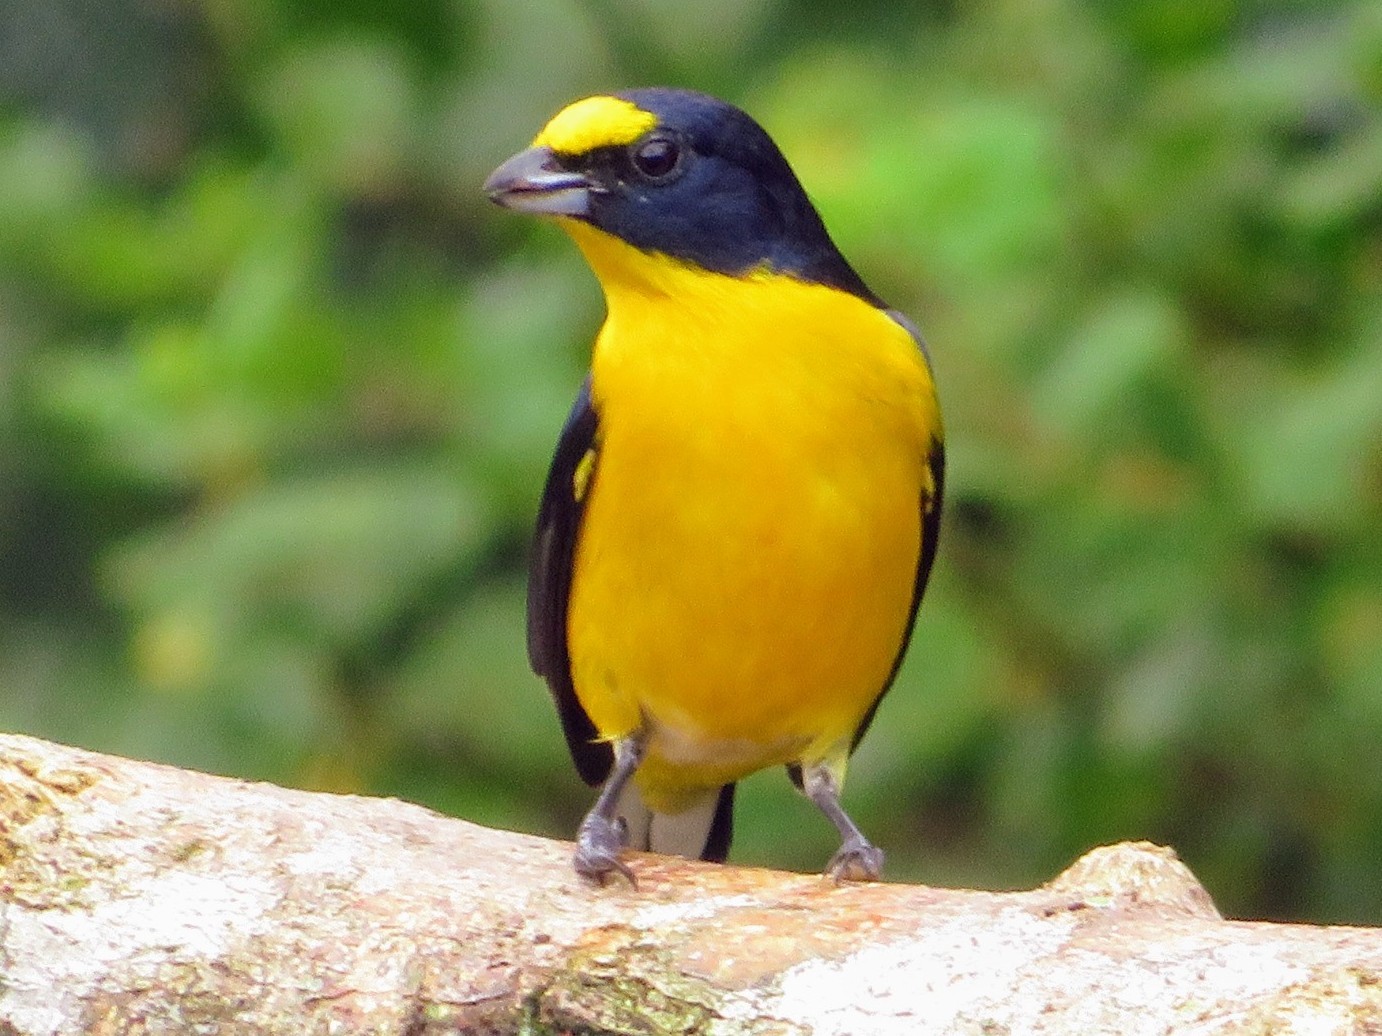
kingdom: Animalia
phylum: Chordata
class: Aves
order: Passeriformes
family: Fringillidae
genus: Euphonia
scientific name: Euphonia hirundinacea
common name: Yellow-throated euphonia
